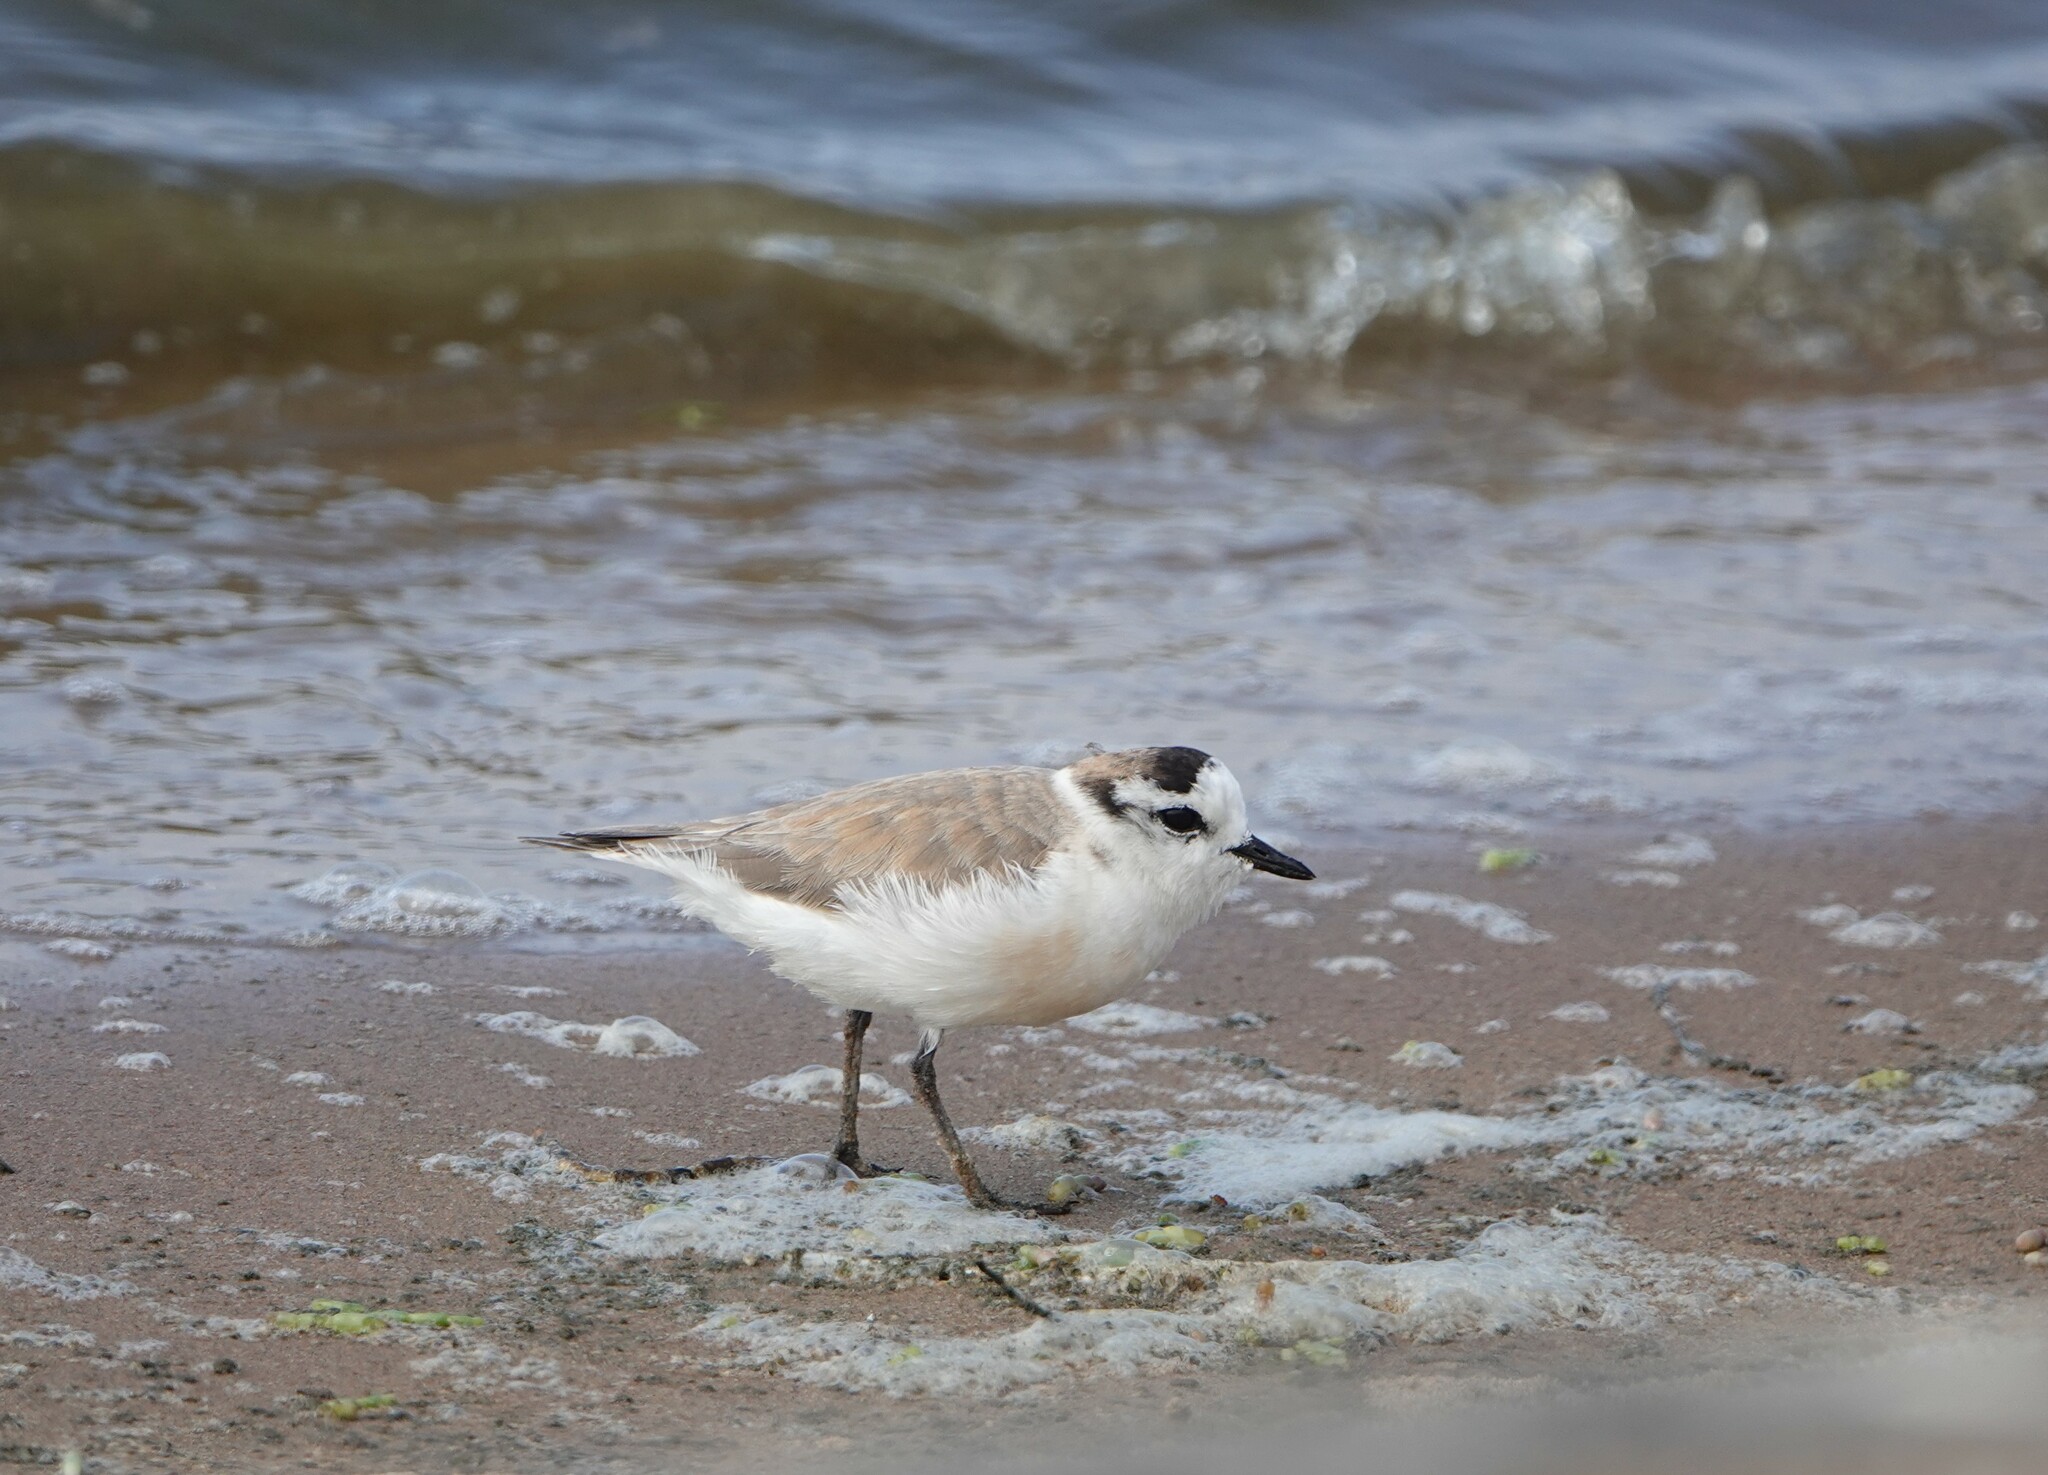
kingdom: Animalia
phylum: Chordata
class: Aves
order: Charadriiformes
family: Charadriidae
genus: Anarhynchus
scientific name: Anarhynchus
